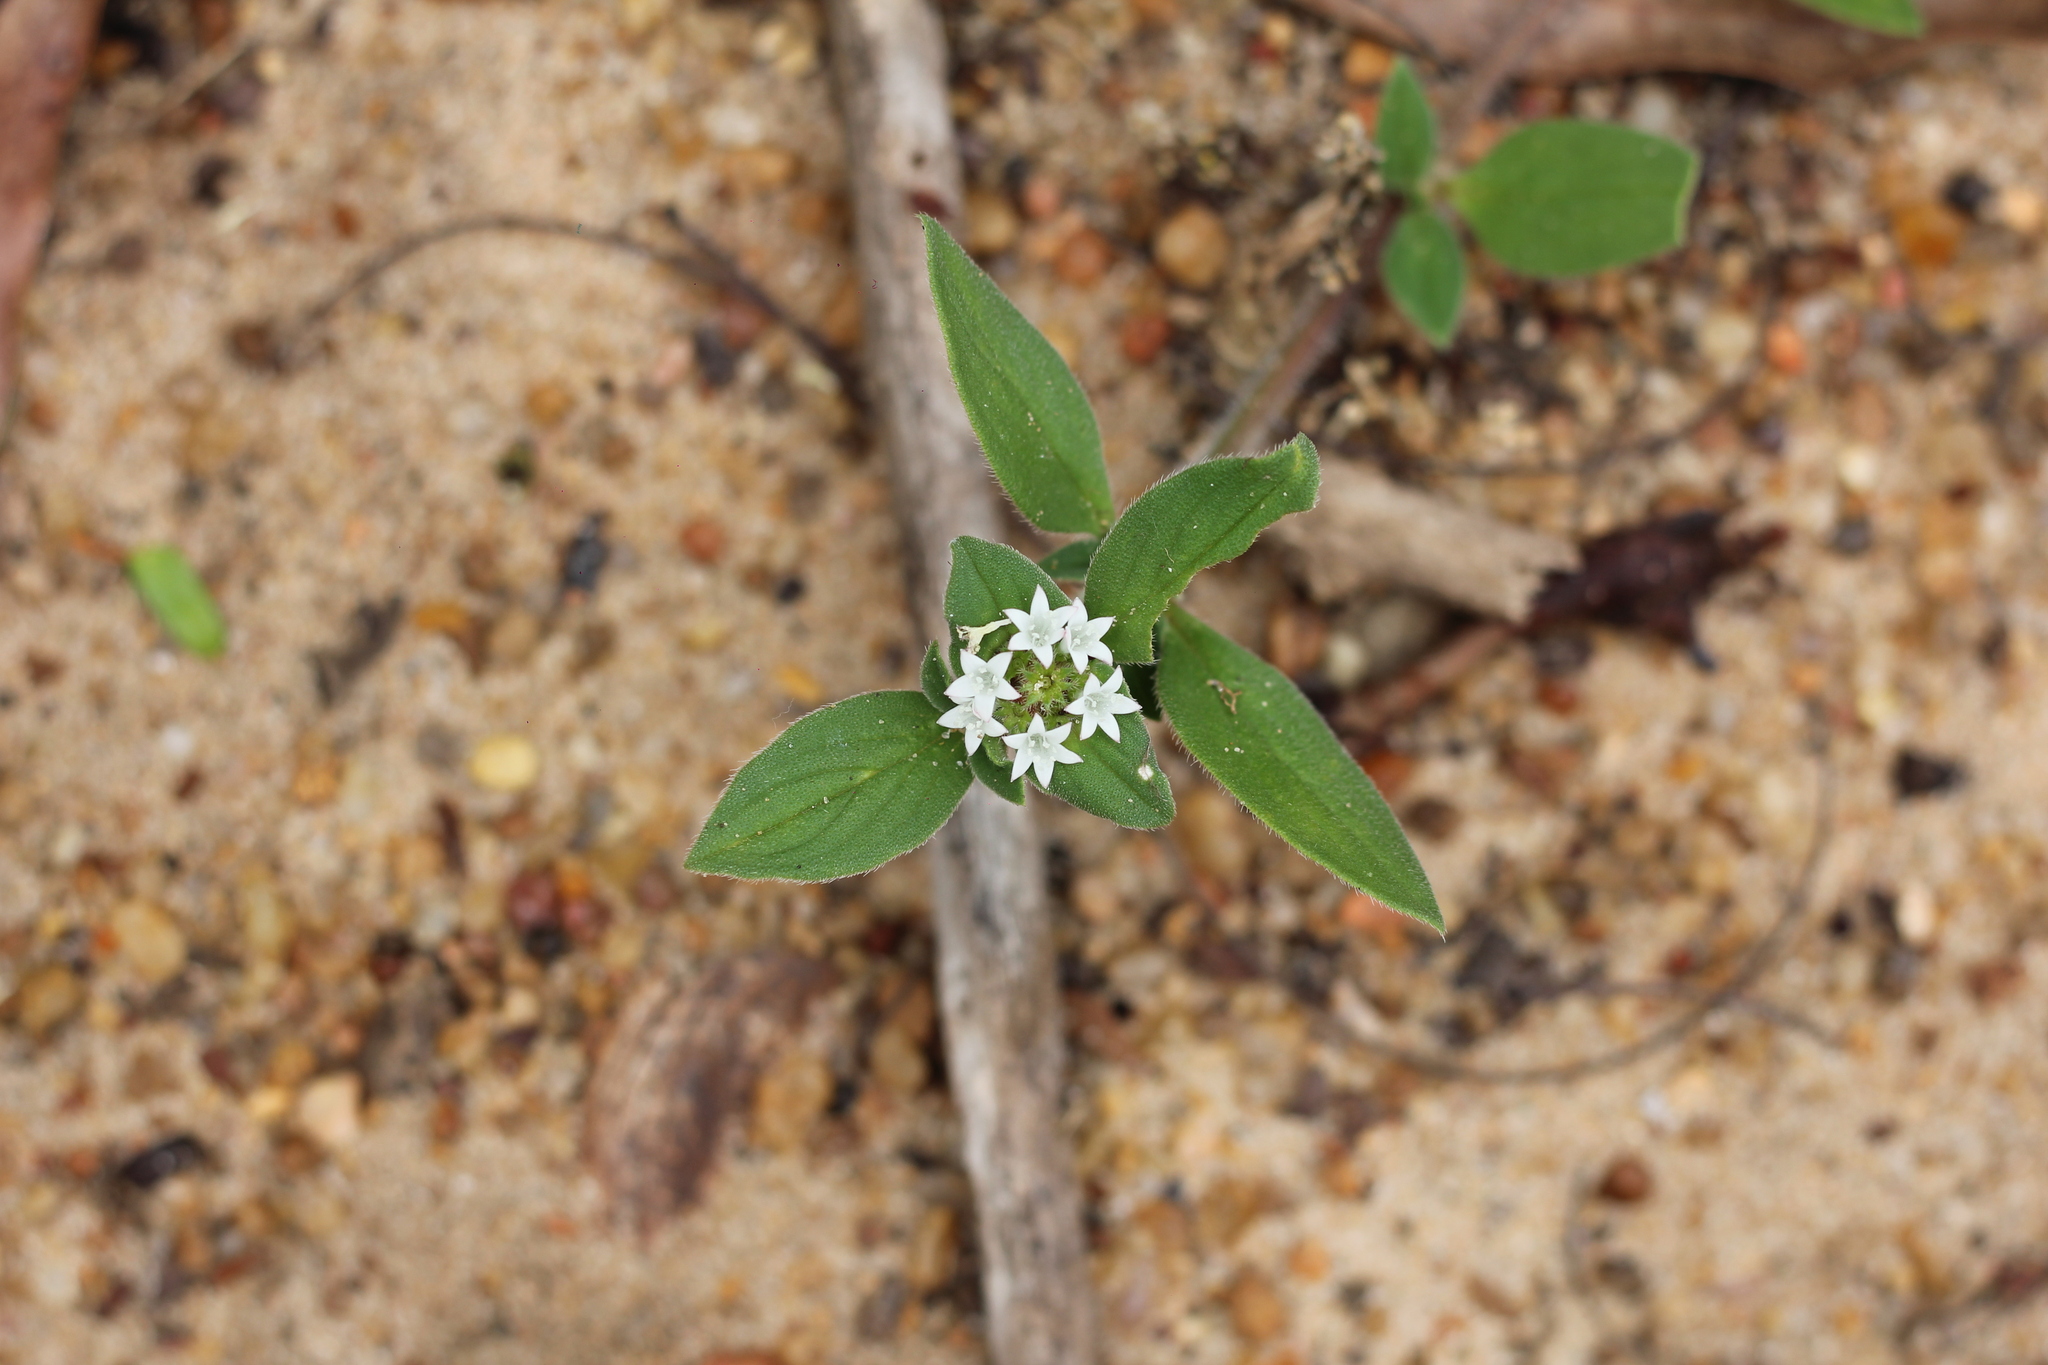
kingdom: Plantae
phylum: Tracheophyta
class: Magnoliopsida
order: Gentianales
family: Rubiaceae
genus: Richardia
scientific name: Richardia brasiliensis
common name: Tropical mexican clover
